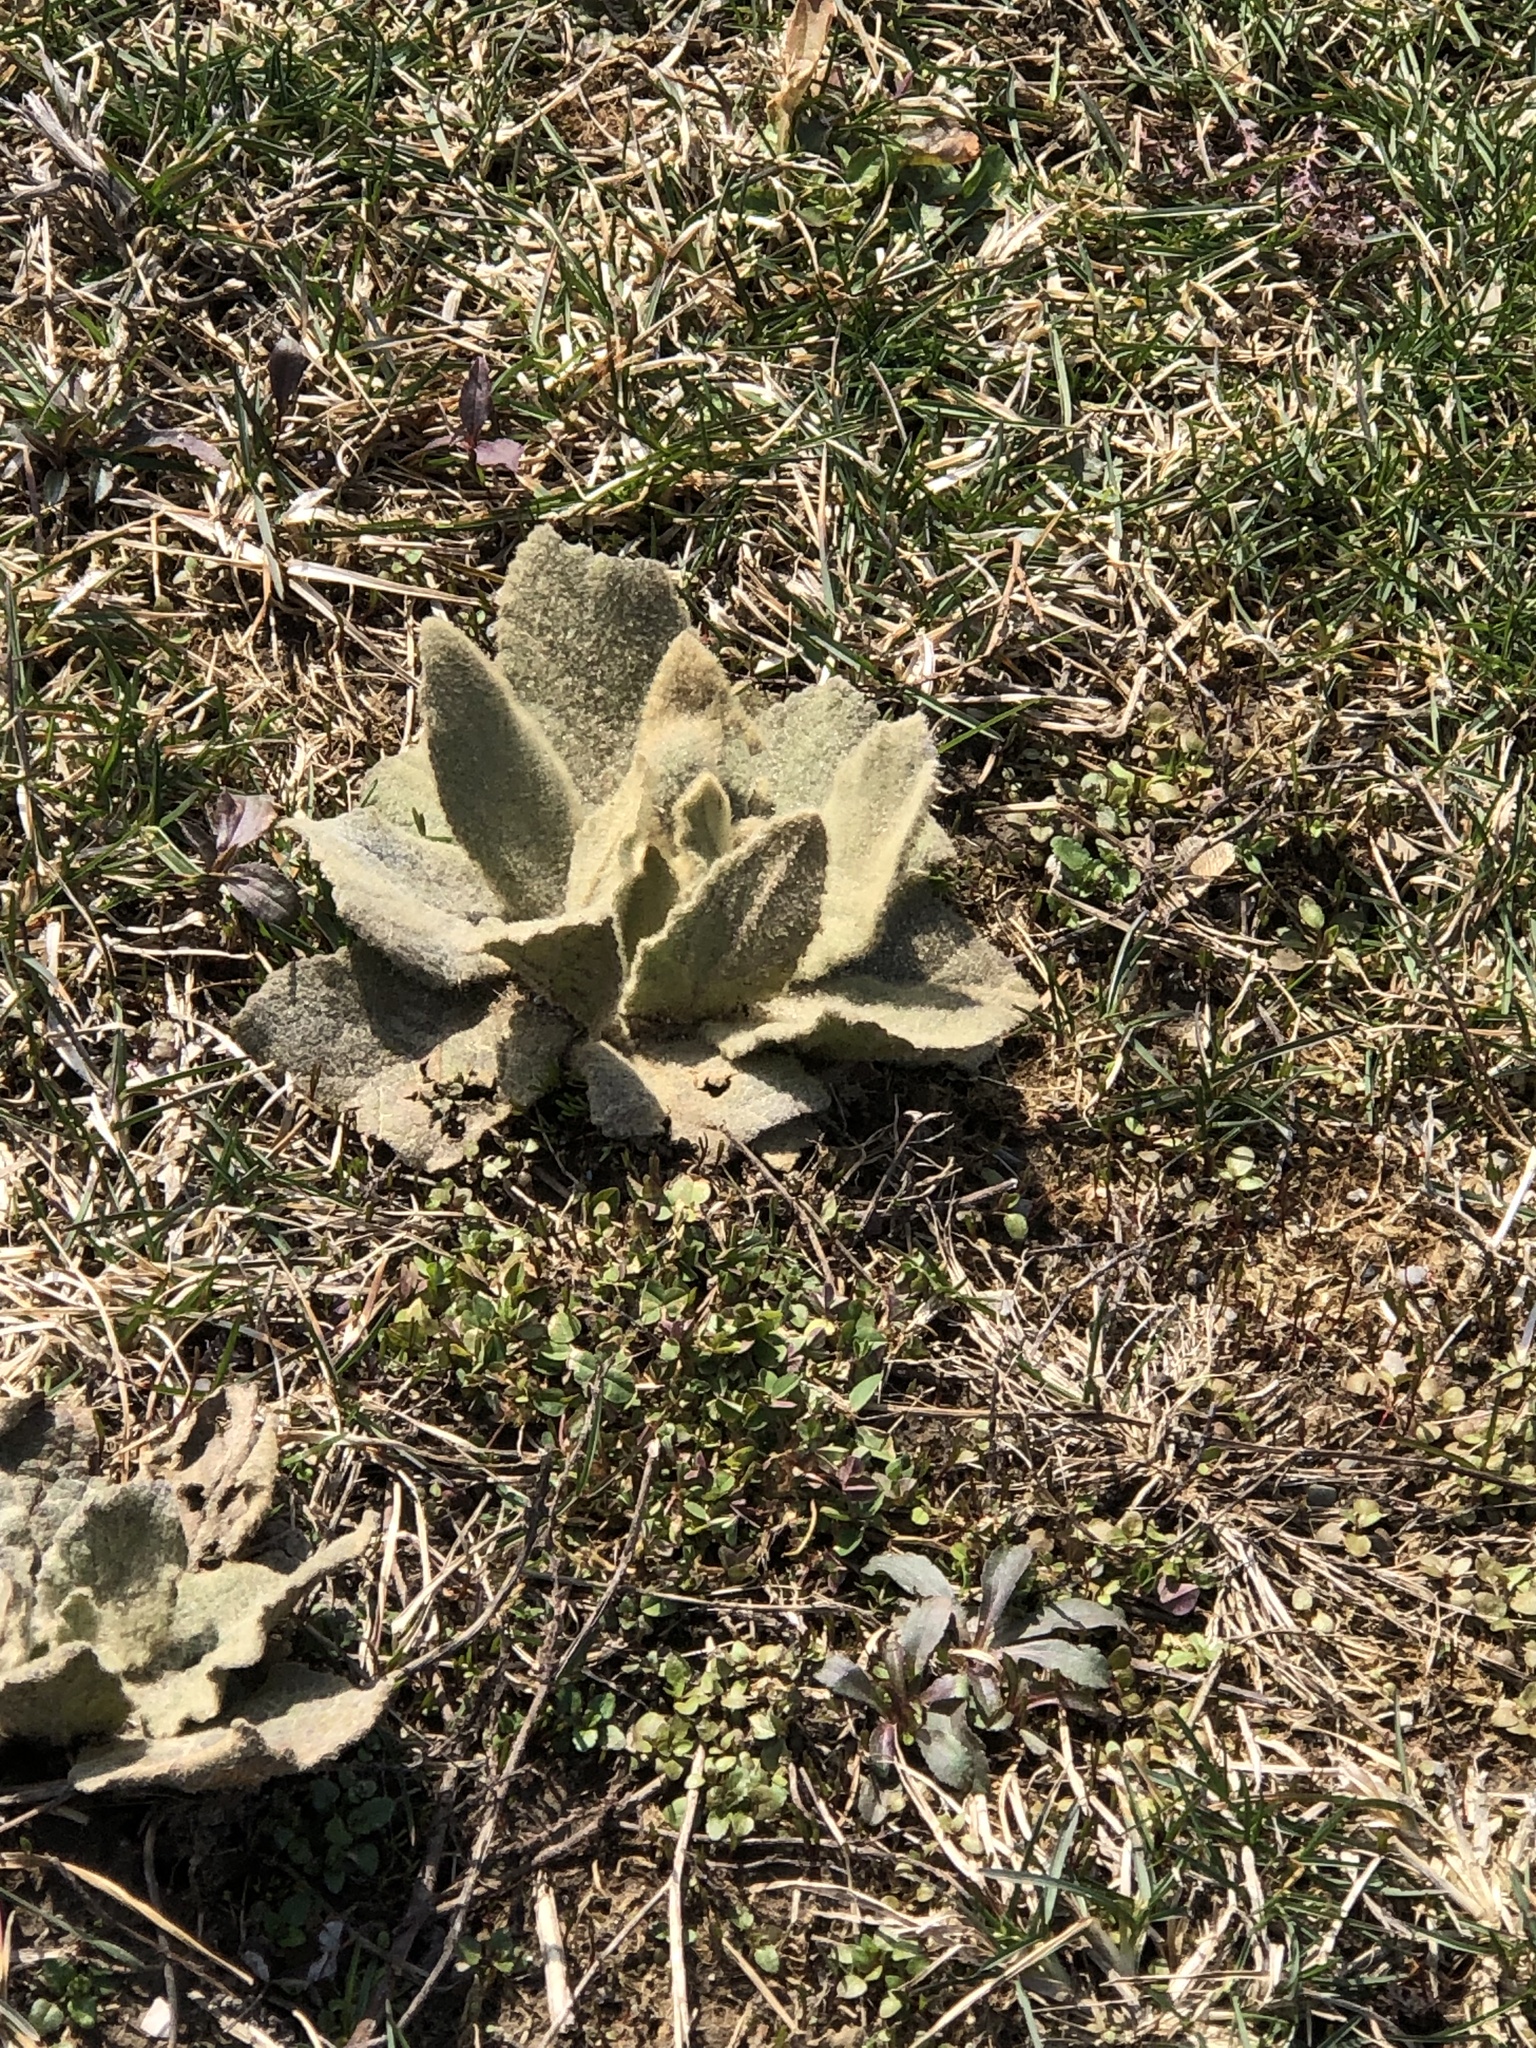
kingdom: Plantae
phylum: Tracheophyta
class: Magnoliopsida
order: Lamiales
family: Scrophulariaceae
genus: Verbascum
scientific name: Verbascum thapsus
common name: Common mullein
